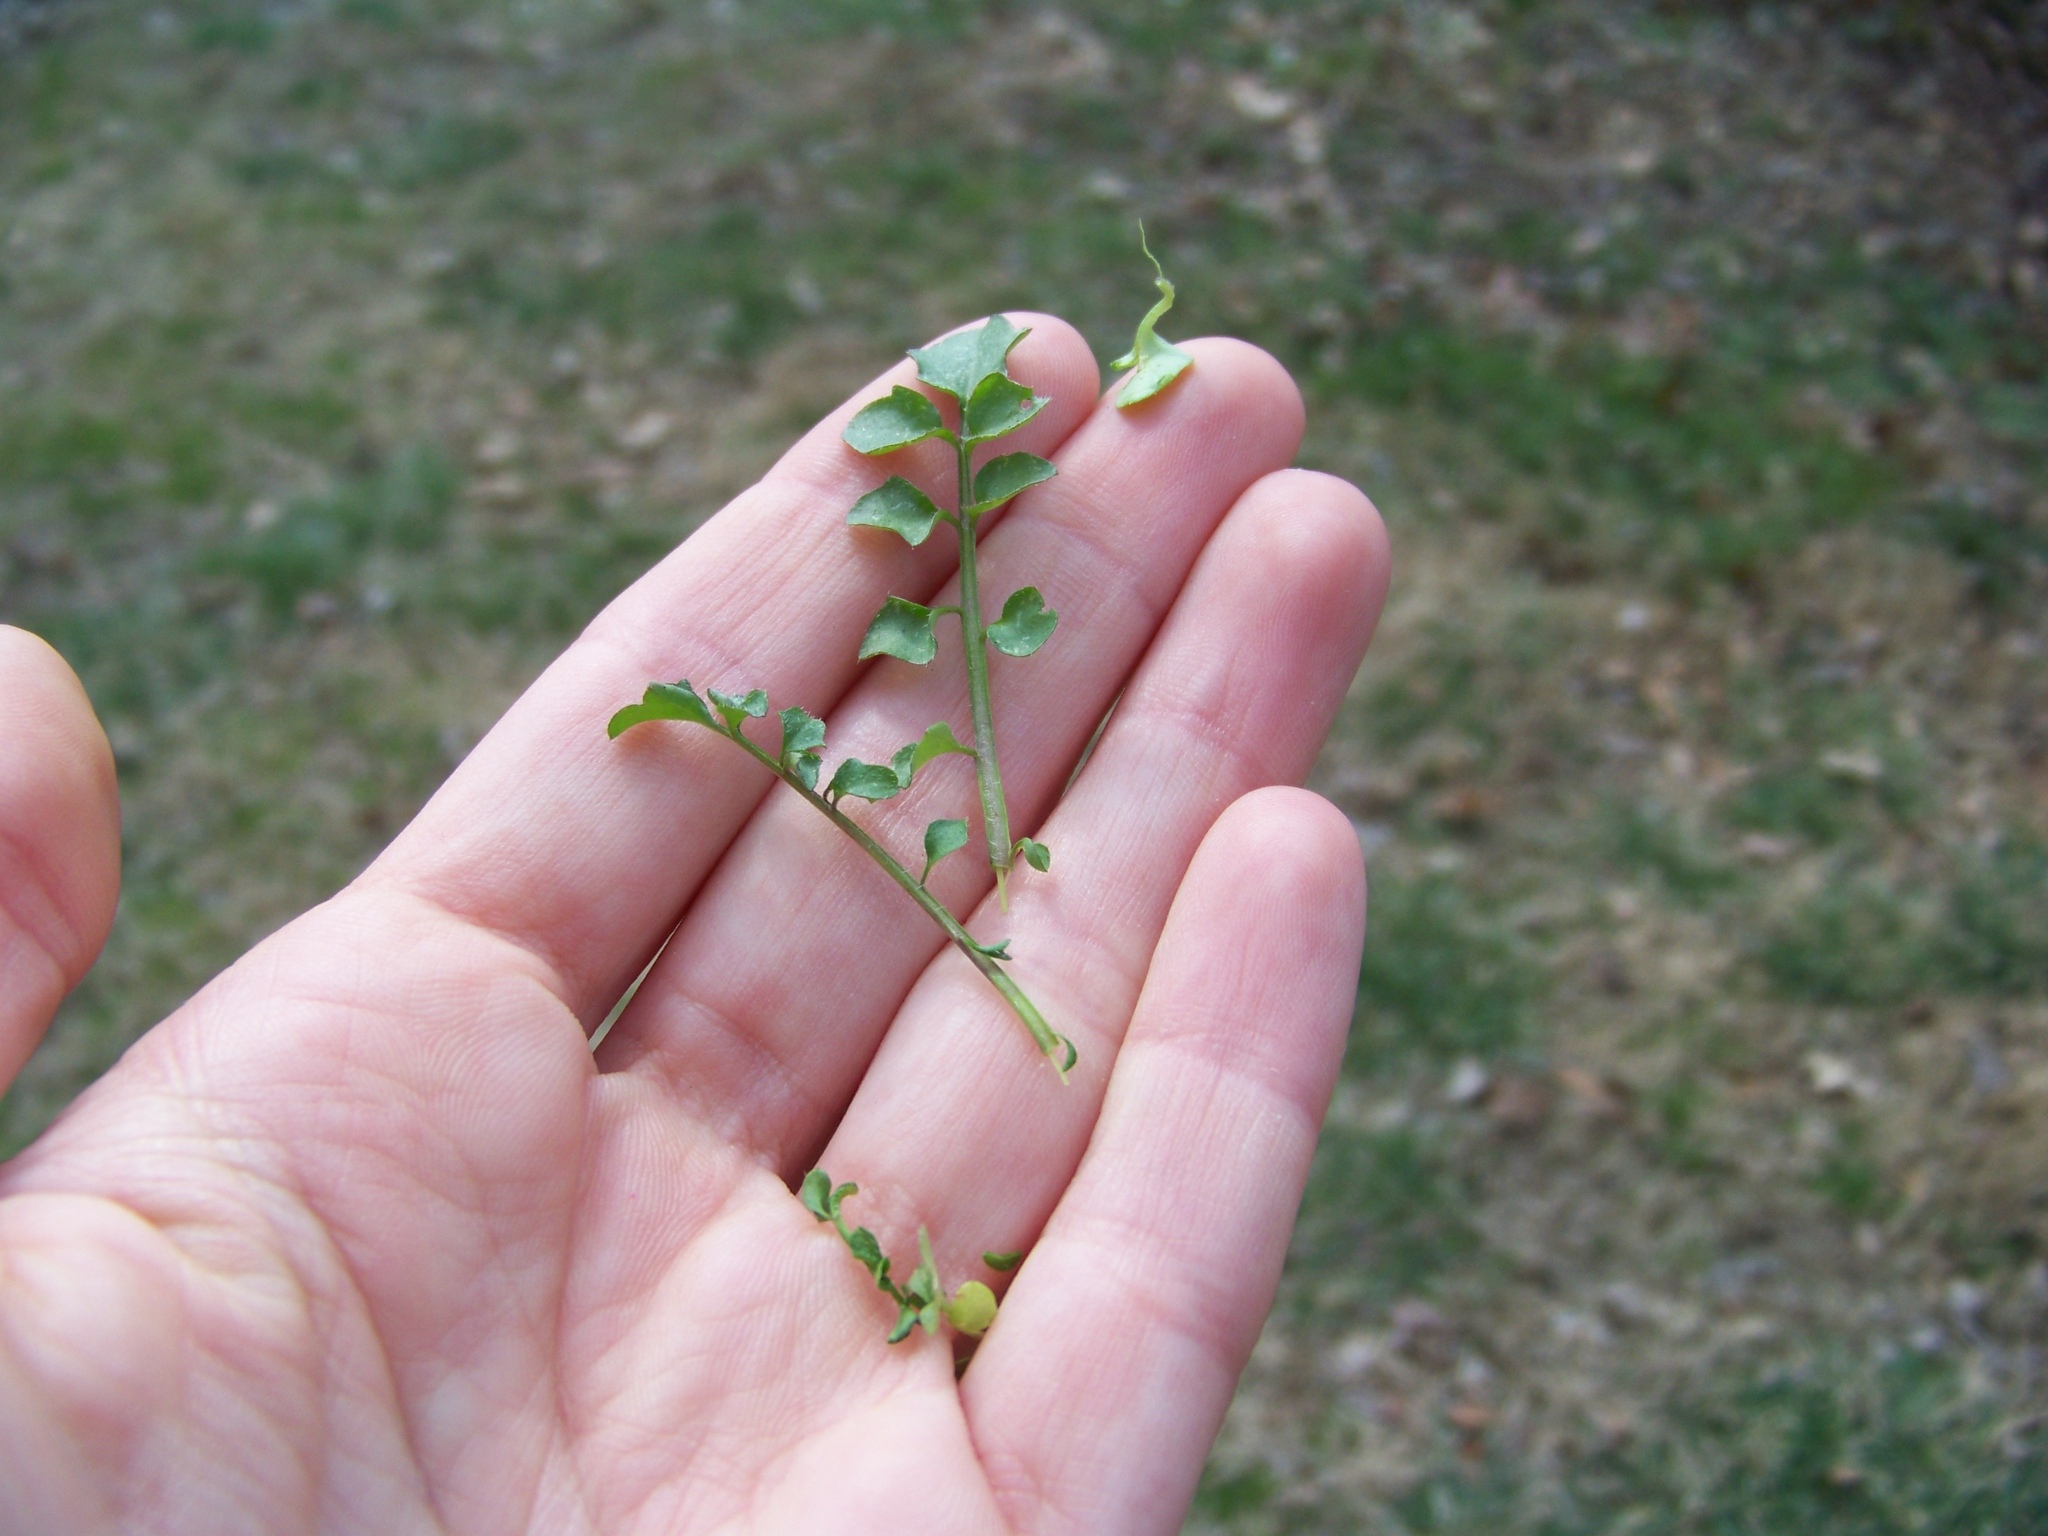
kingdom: Plantae
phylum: Tracheophyta
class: Magnoliopsida
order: Brassicales
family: Brassicaceae
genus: Cardamine
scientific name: Cardamine hirsuta
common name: Hairy bittercress
